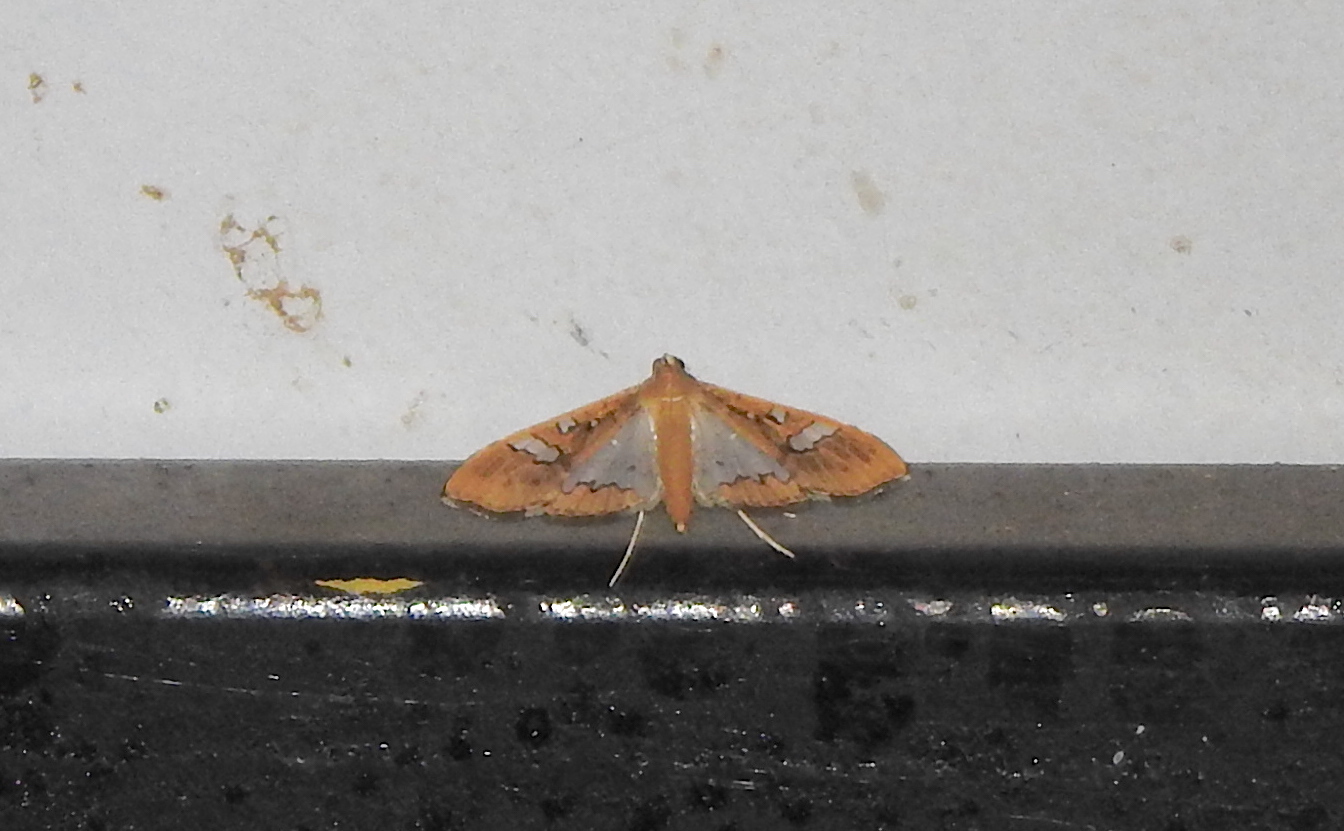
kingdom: Animalia
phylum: Arthropoda
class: Insecta
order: Lepidoptera
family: Crambidae
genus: Maruca
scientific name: Maruca vitrata
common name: Maruca pod borer
